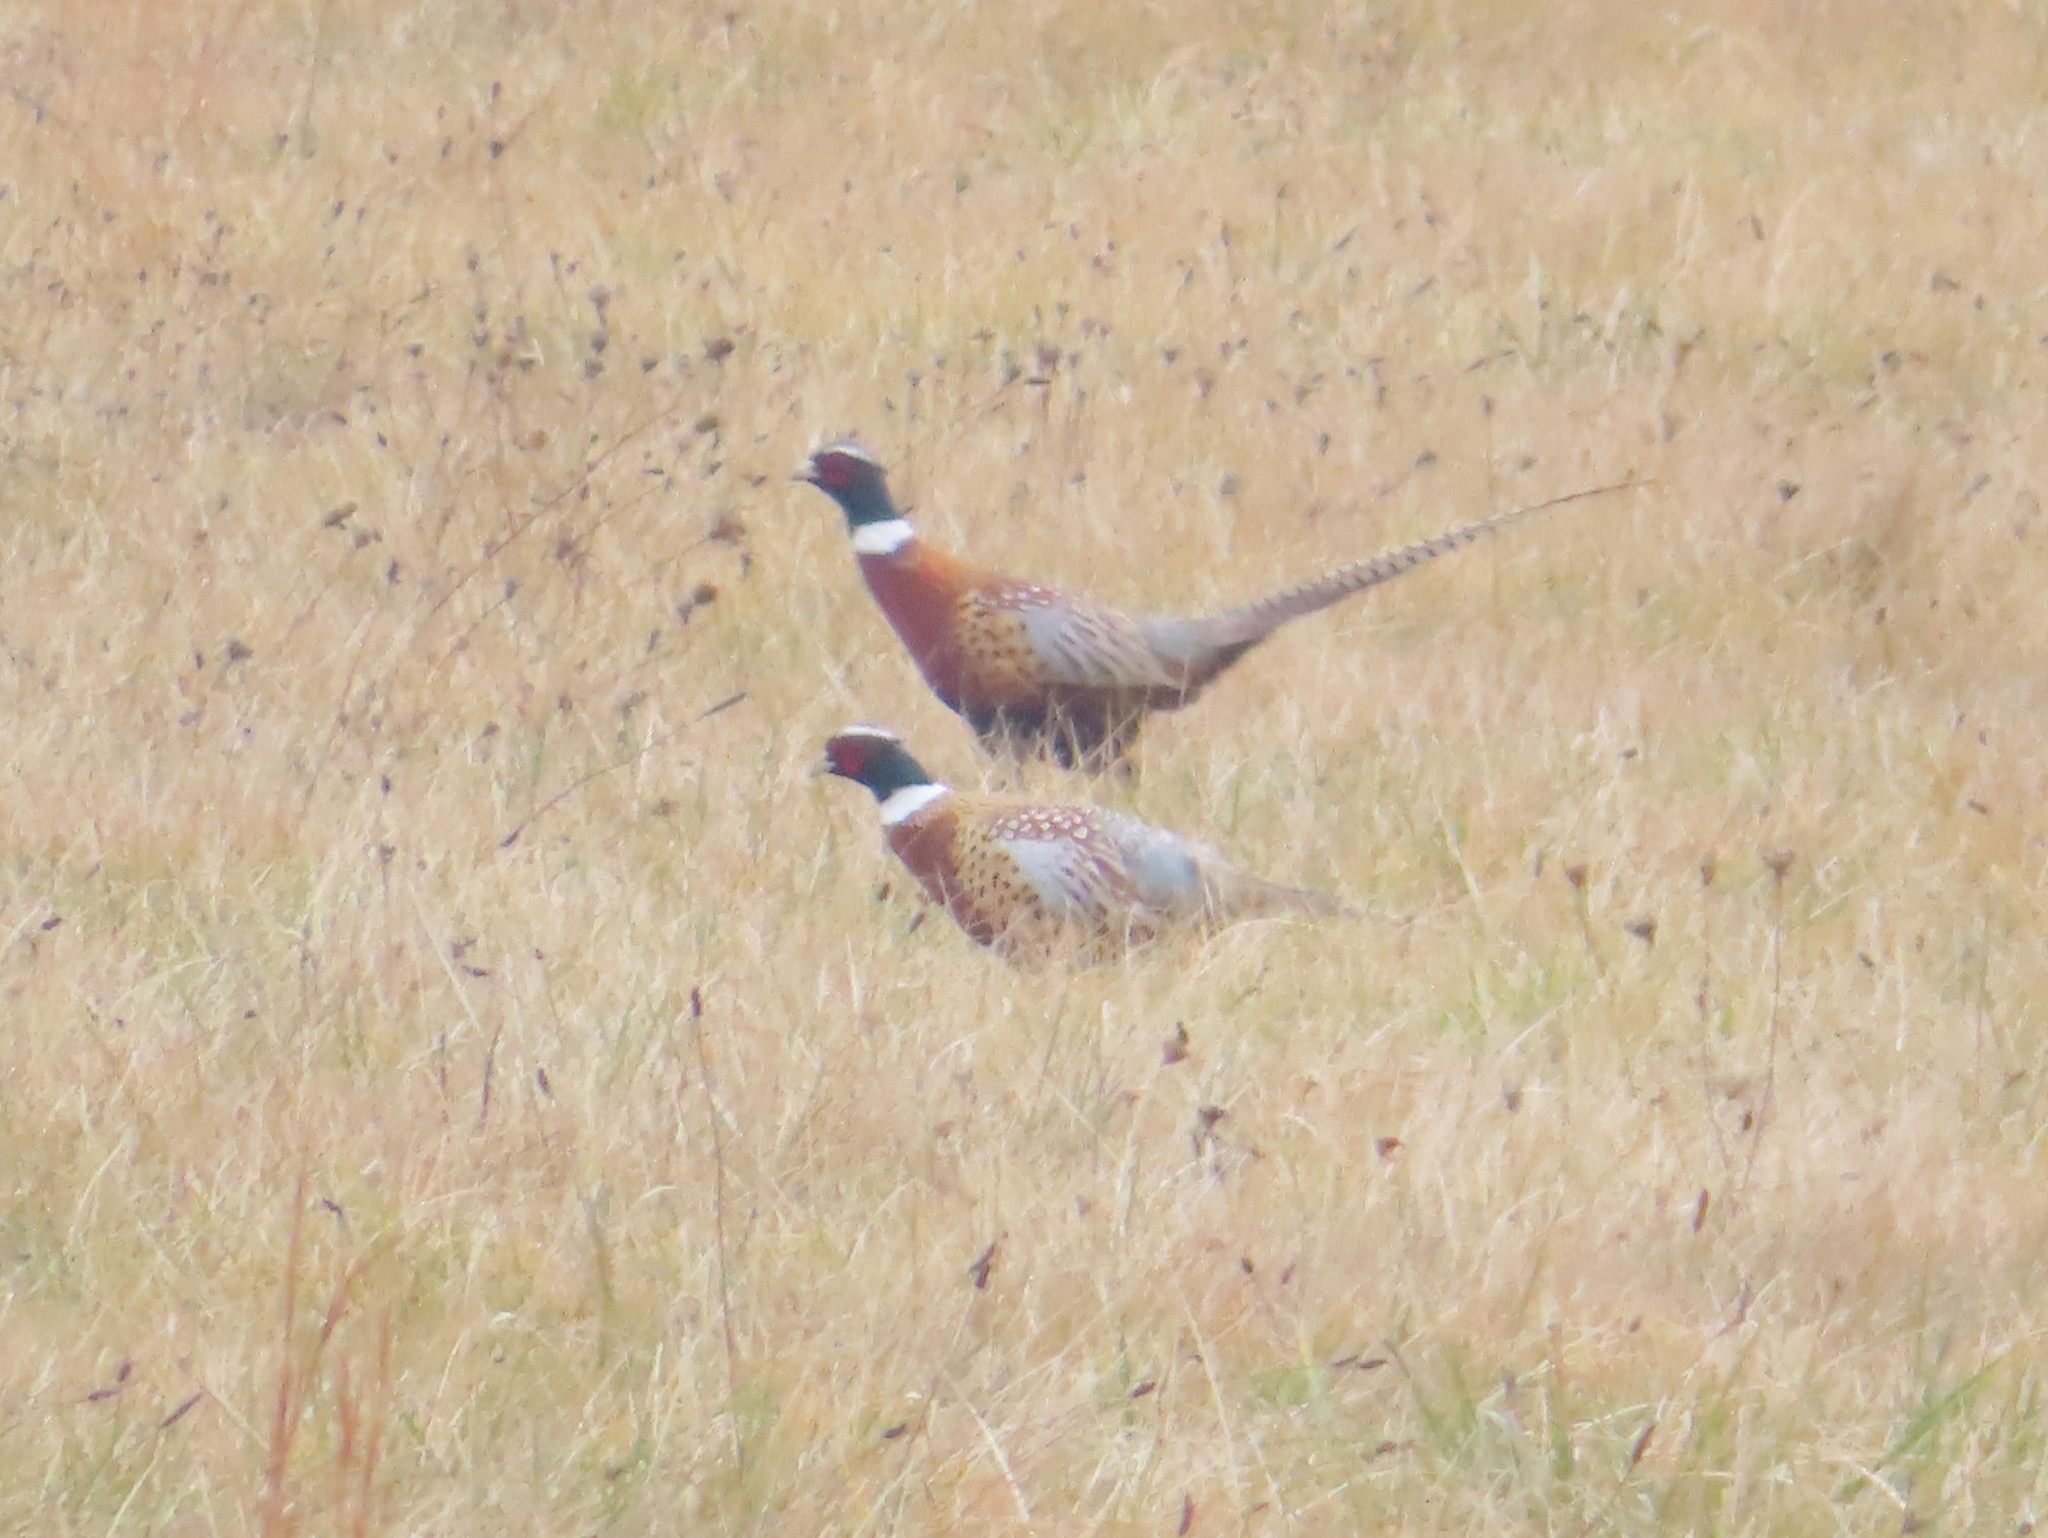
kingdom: Animalia
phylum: Chordata
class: Aves
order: Galliformes
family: Phasianidae
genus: Phasianus
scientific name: Phasianus colchicus
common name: Common pheasant
